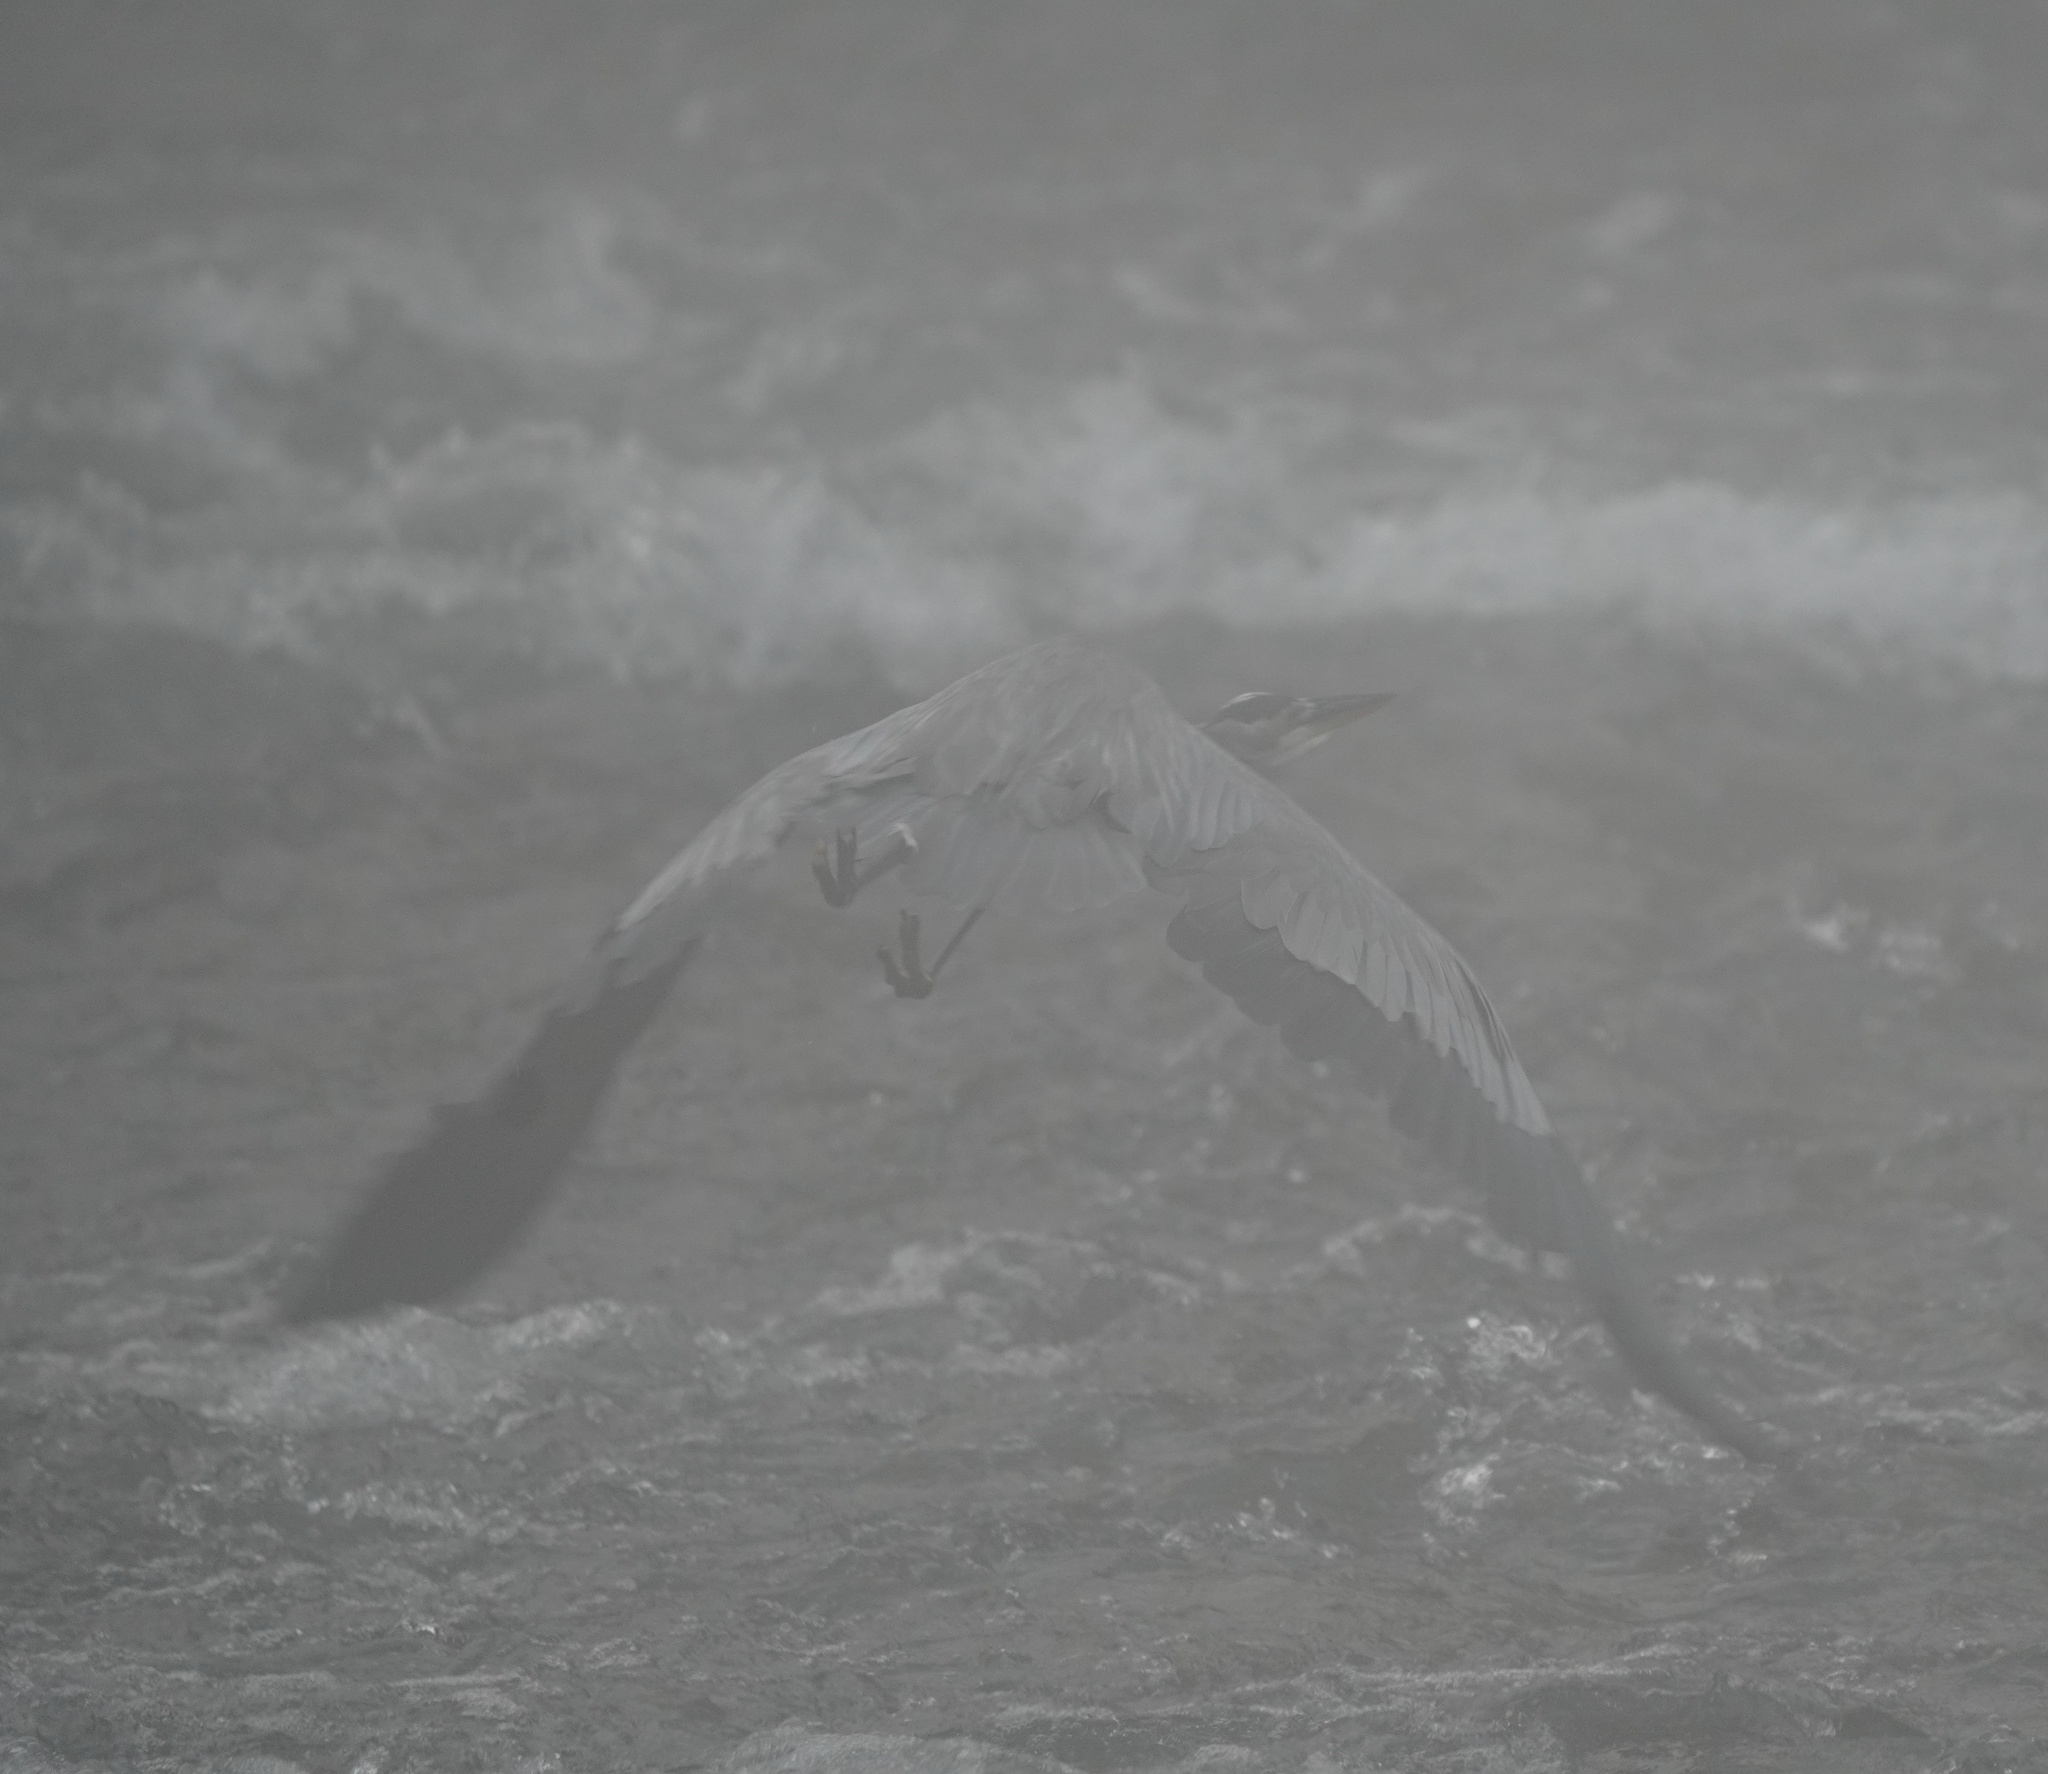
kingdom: Animalia
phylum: Chordata
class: Aves
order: Pelecaniformes
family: Ardeidae
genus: Ardea
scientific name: Ardea herodias
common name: Great blue heron
